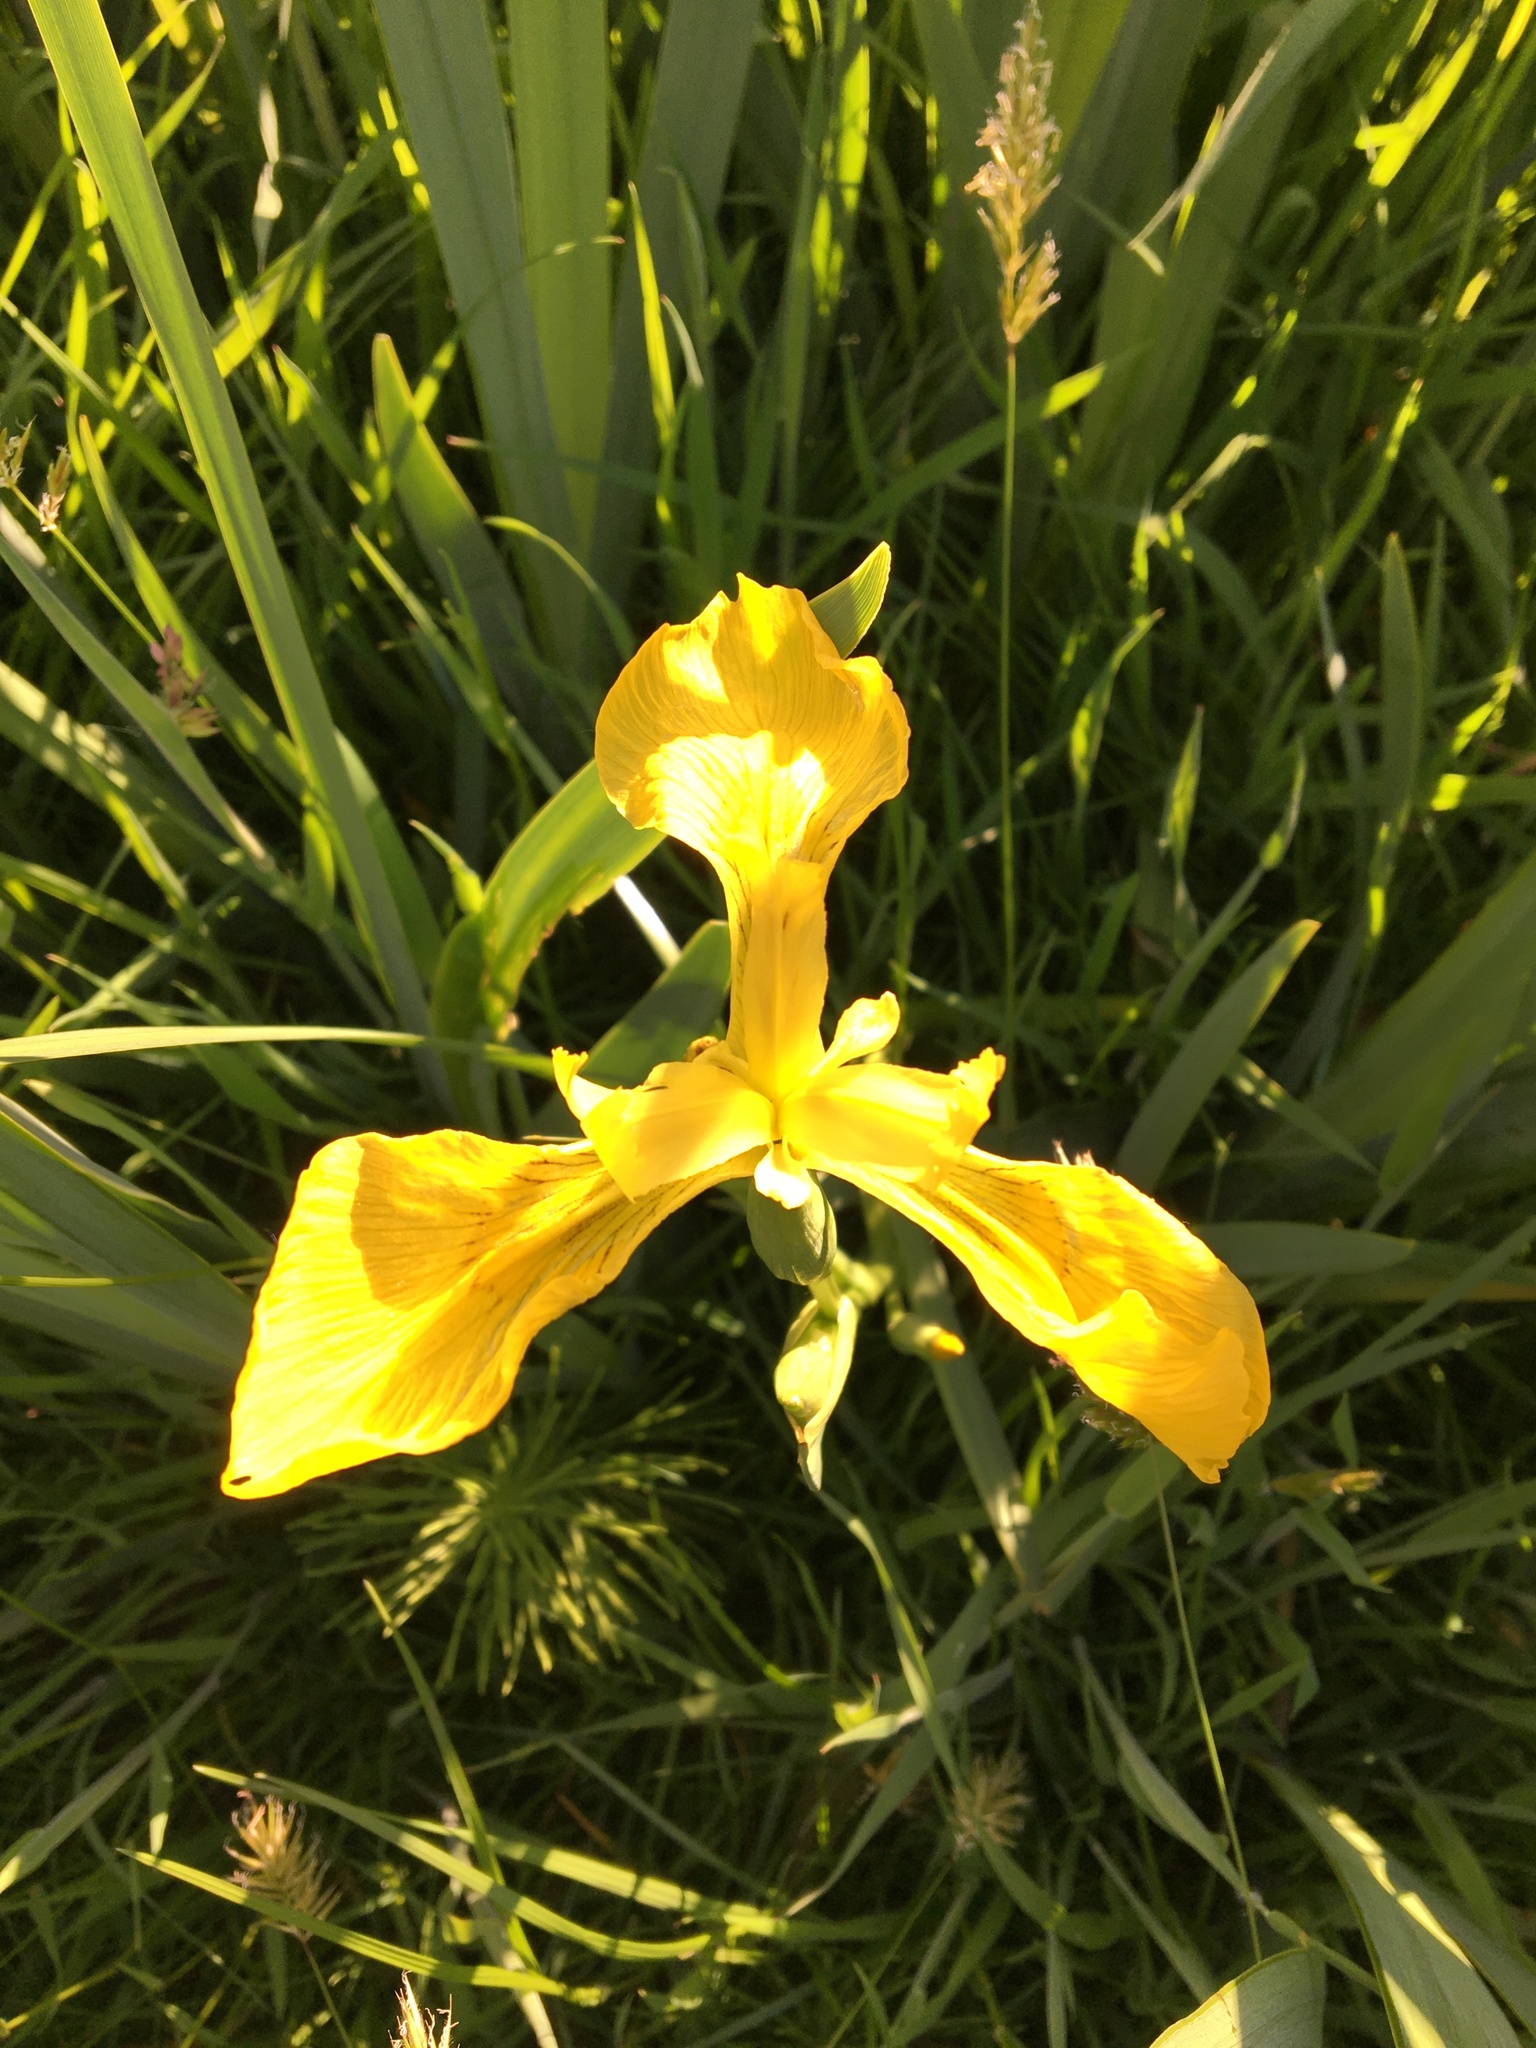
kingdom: Plantae
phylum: Tracheophyta
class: Liliopsida
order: Asparagales
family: Iridaceae
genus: Iris
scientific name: Iris pseudacorus
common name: Yellow flag
